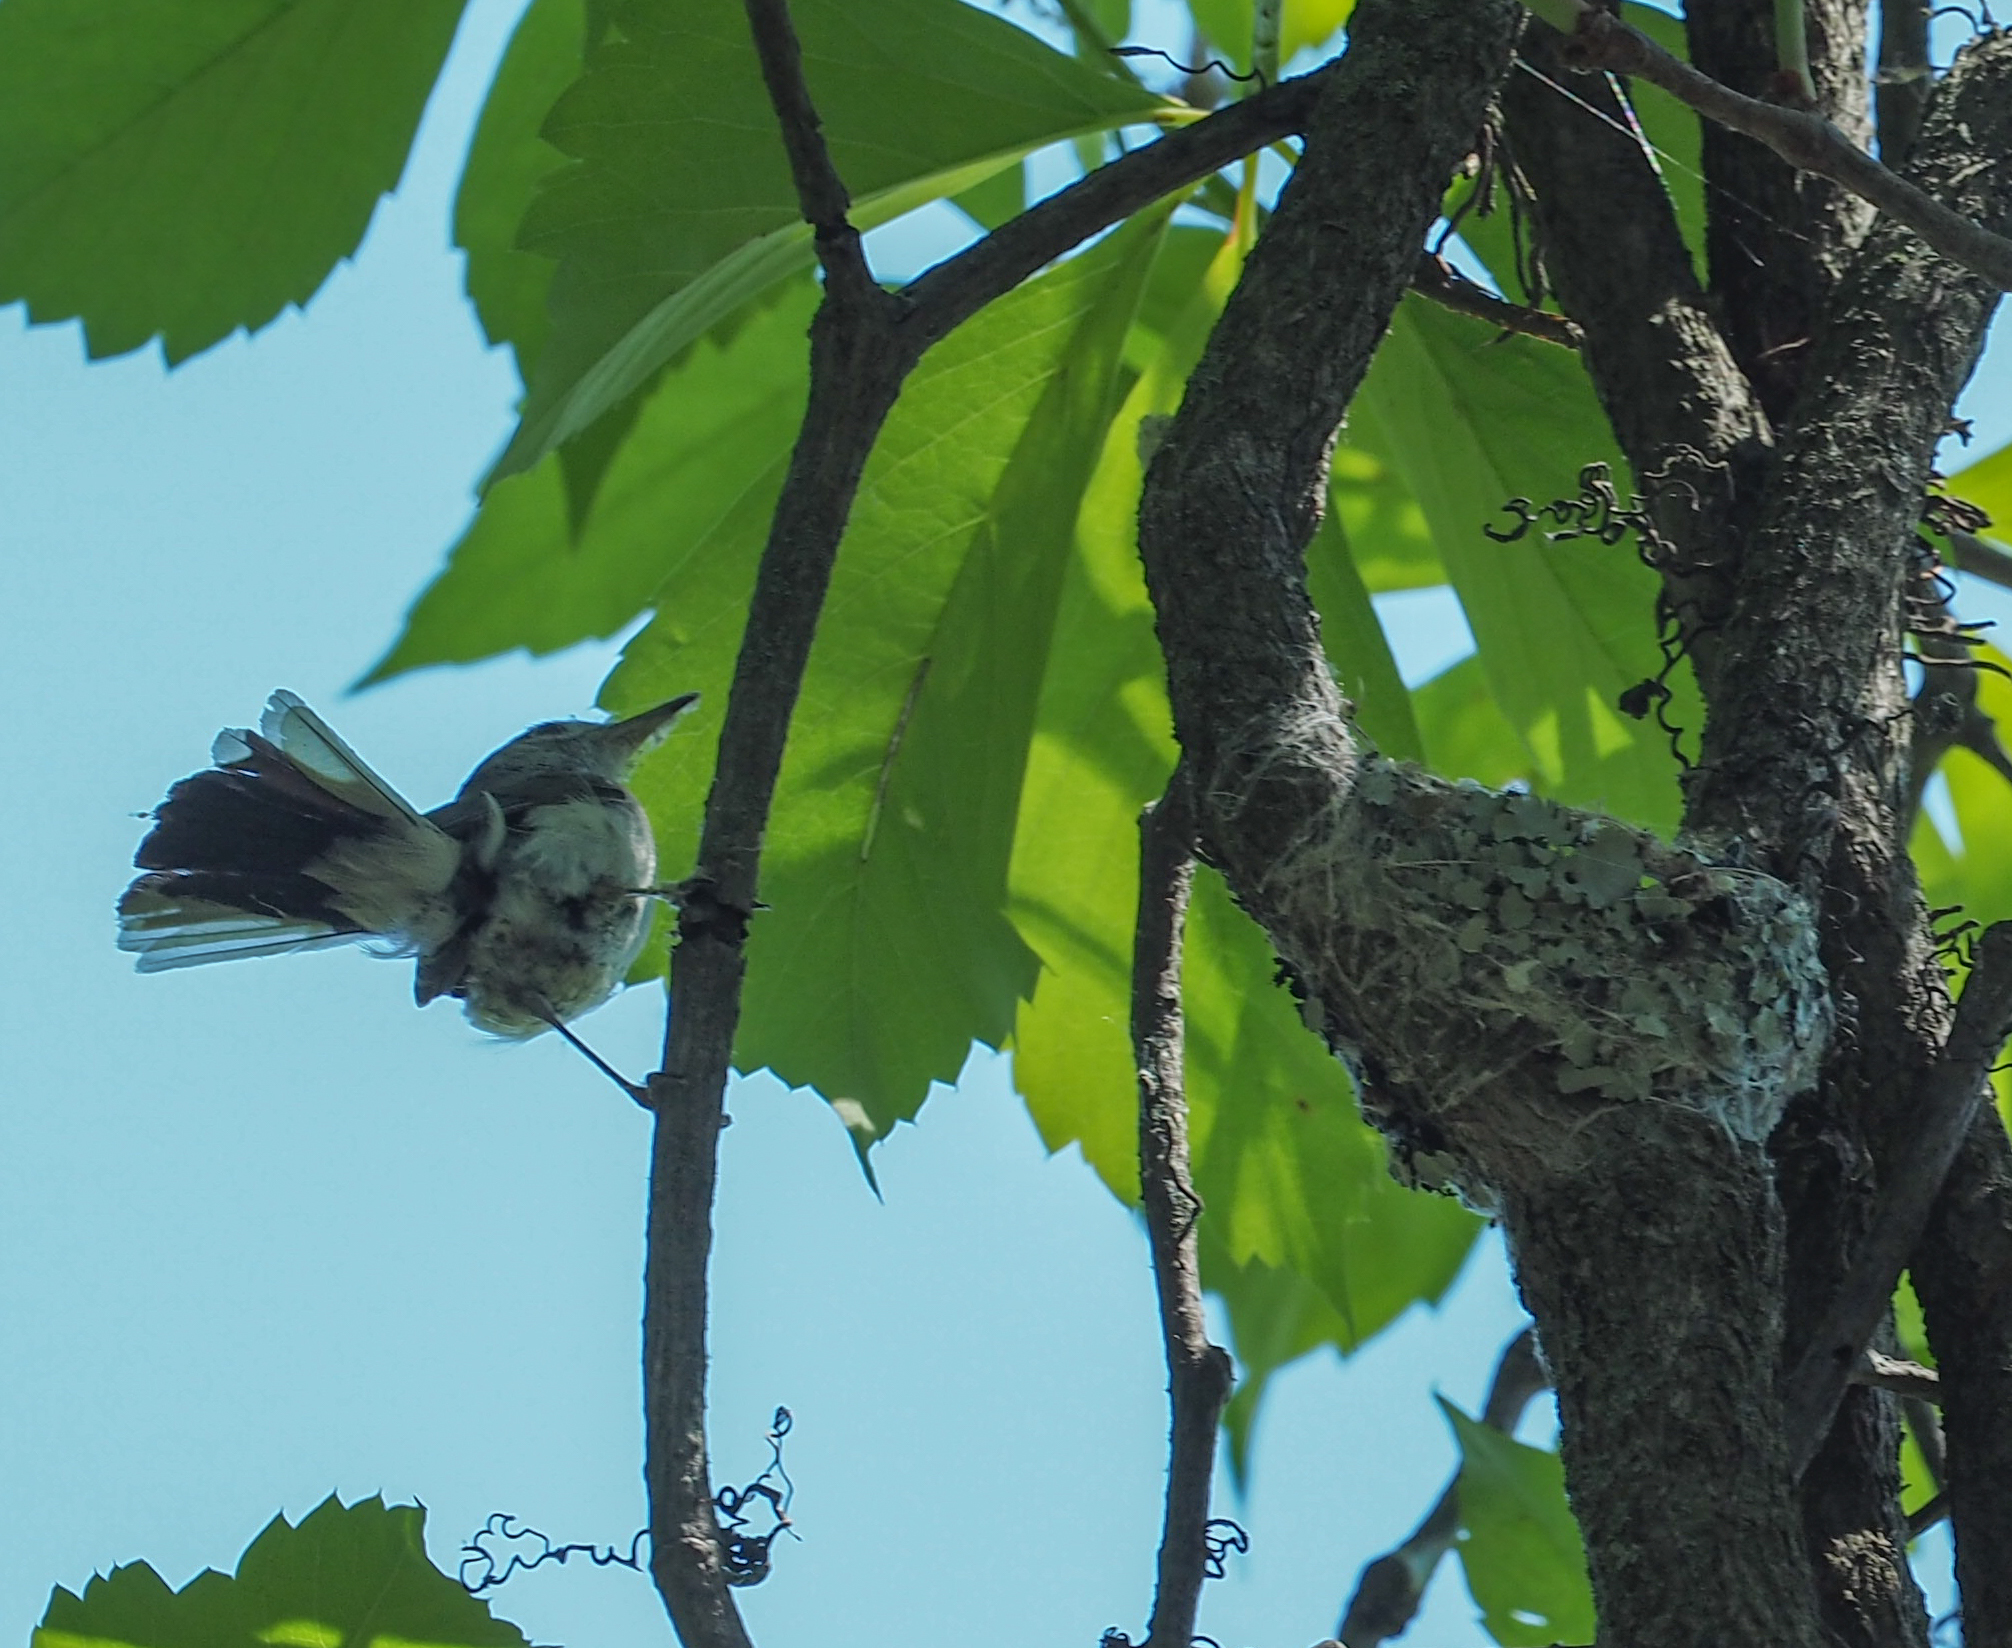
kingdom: Animalia
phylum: Chordata
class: Aves
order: Passeriformes
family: Polioptilidae
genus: Polioptila
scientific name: Polioptila caerulea
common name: Blue-gray gnatcatcher
